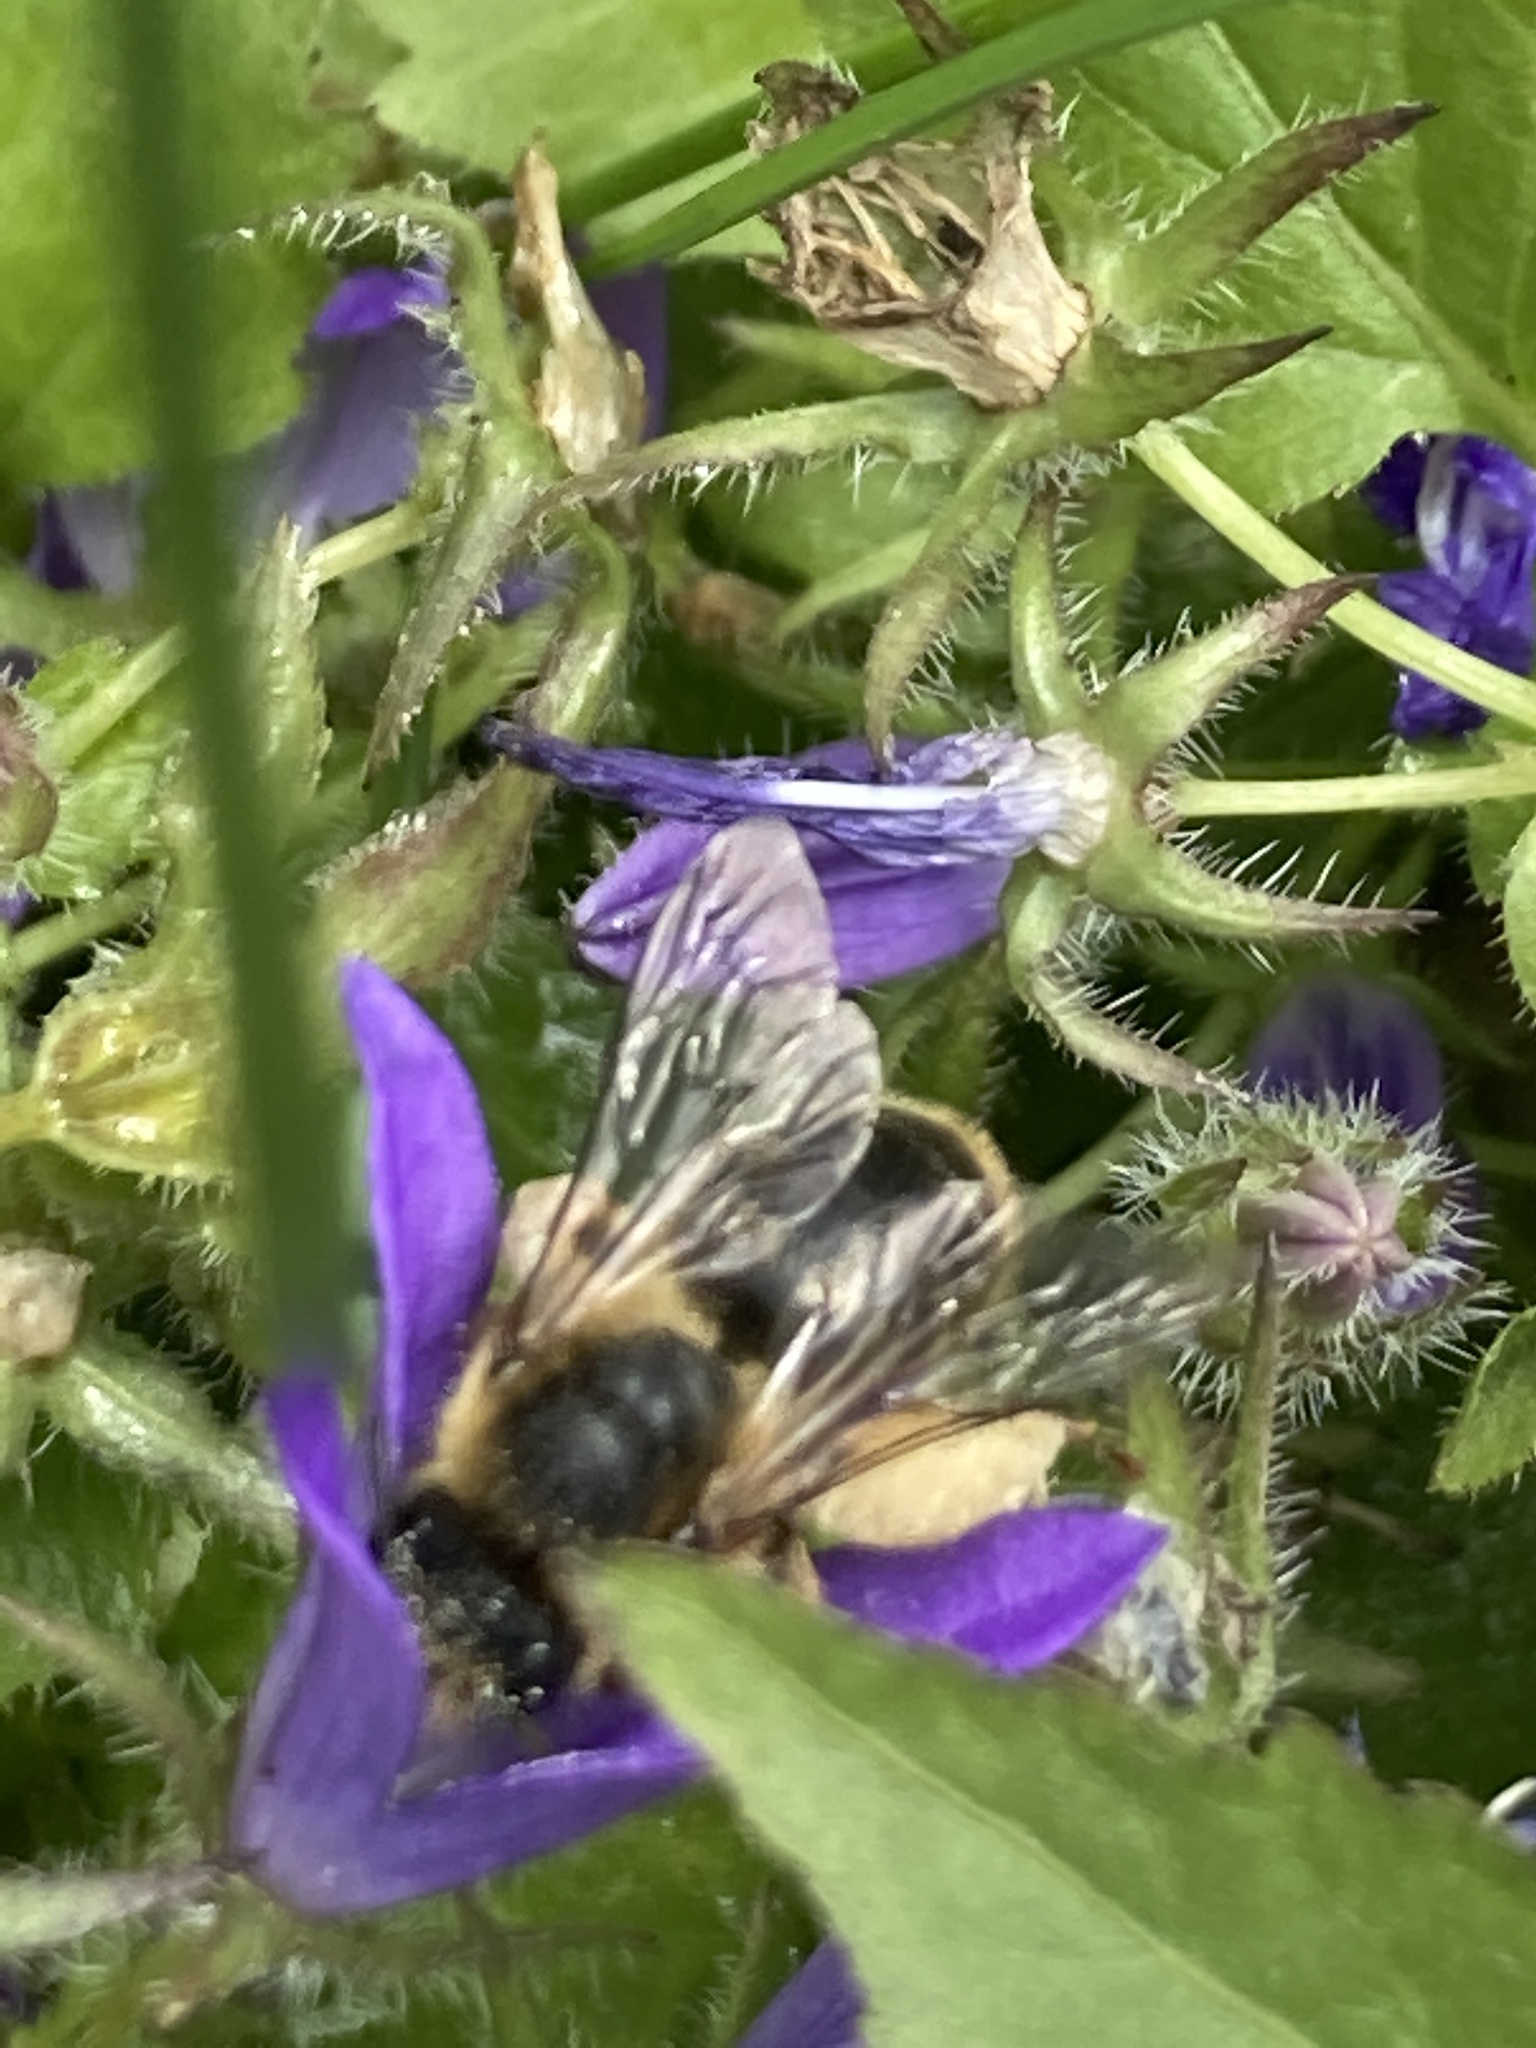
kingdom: Animalia
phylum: Arthropoda
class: Insecta
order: Hymenoptera
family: Melittidae
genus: Melitta
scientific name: Melitta haemorrhoidalis
